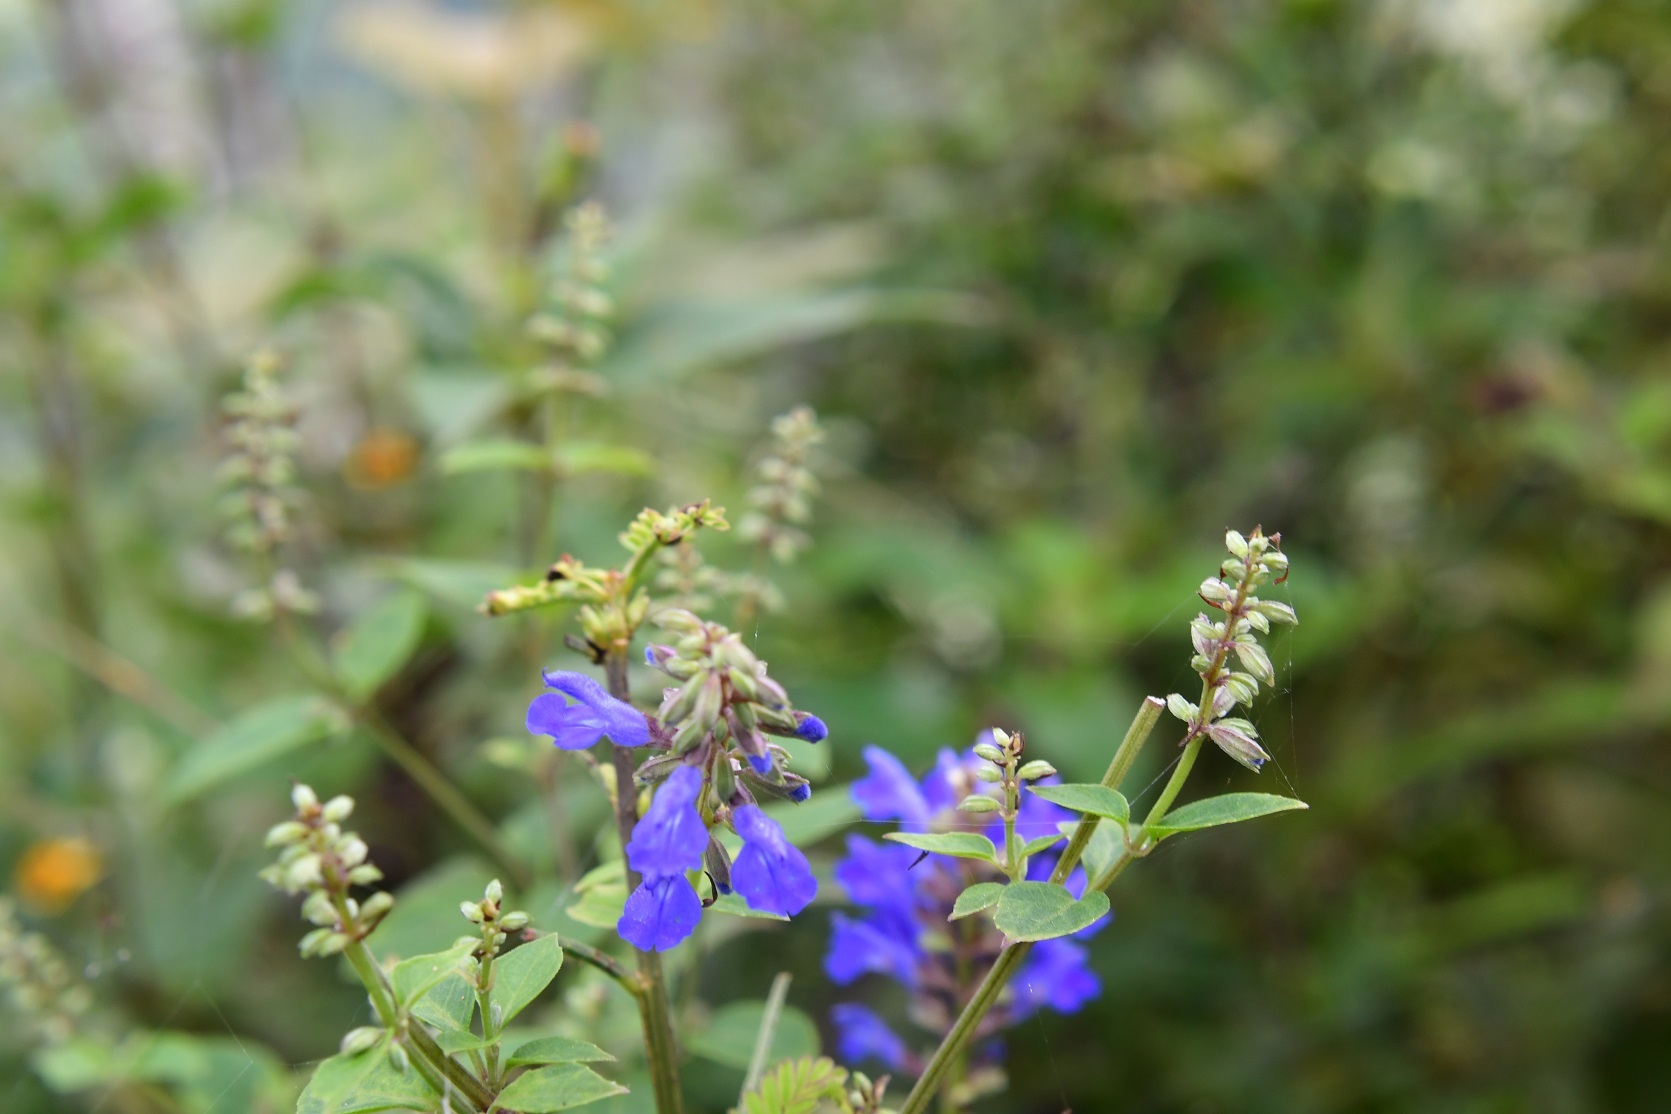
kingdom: Plantae
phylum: Tracheophyta
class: Magnoliopsida
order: Lamiales
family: Lamiaceae
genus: Salvia
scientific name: Salvia connivens
